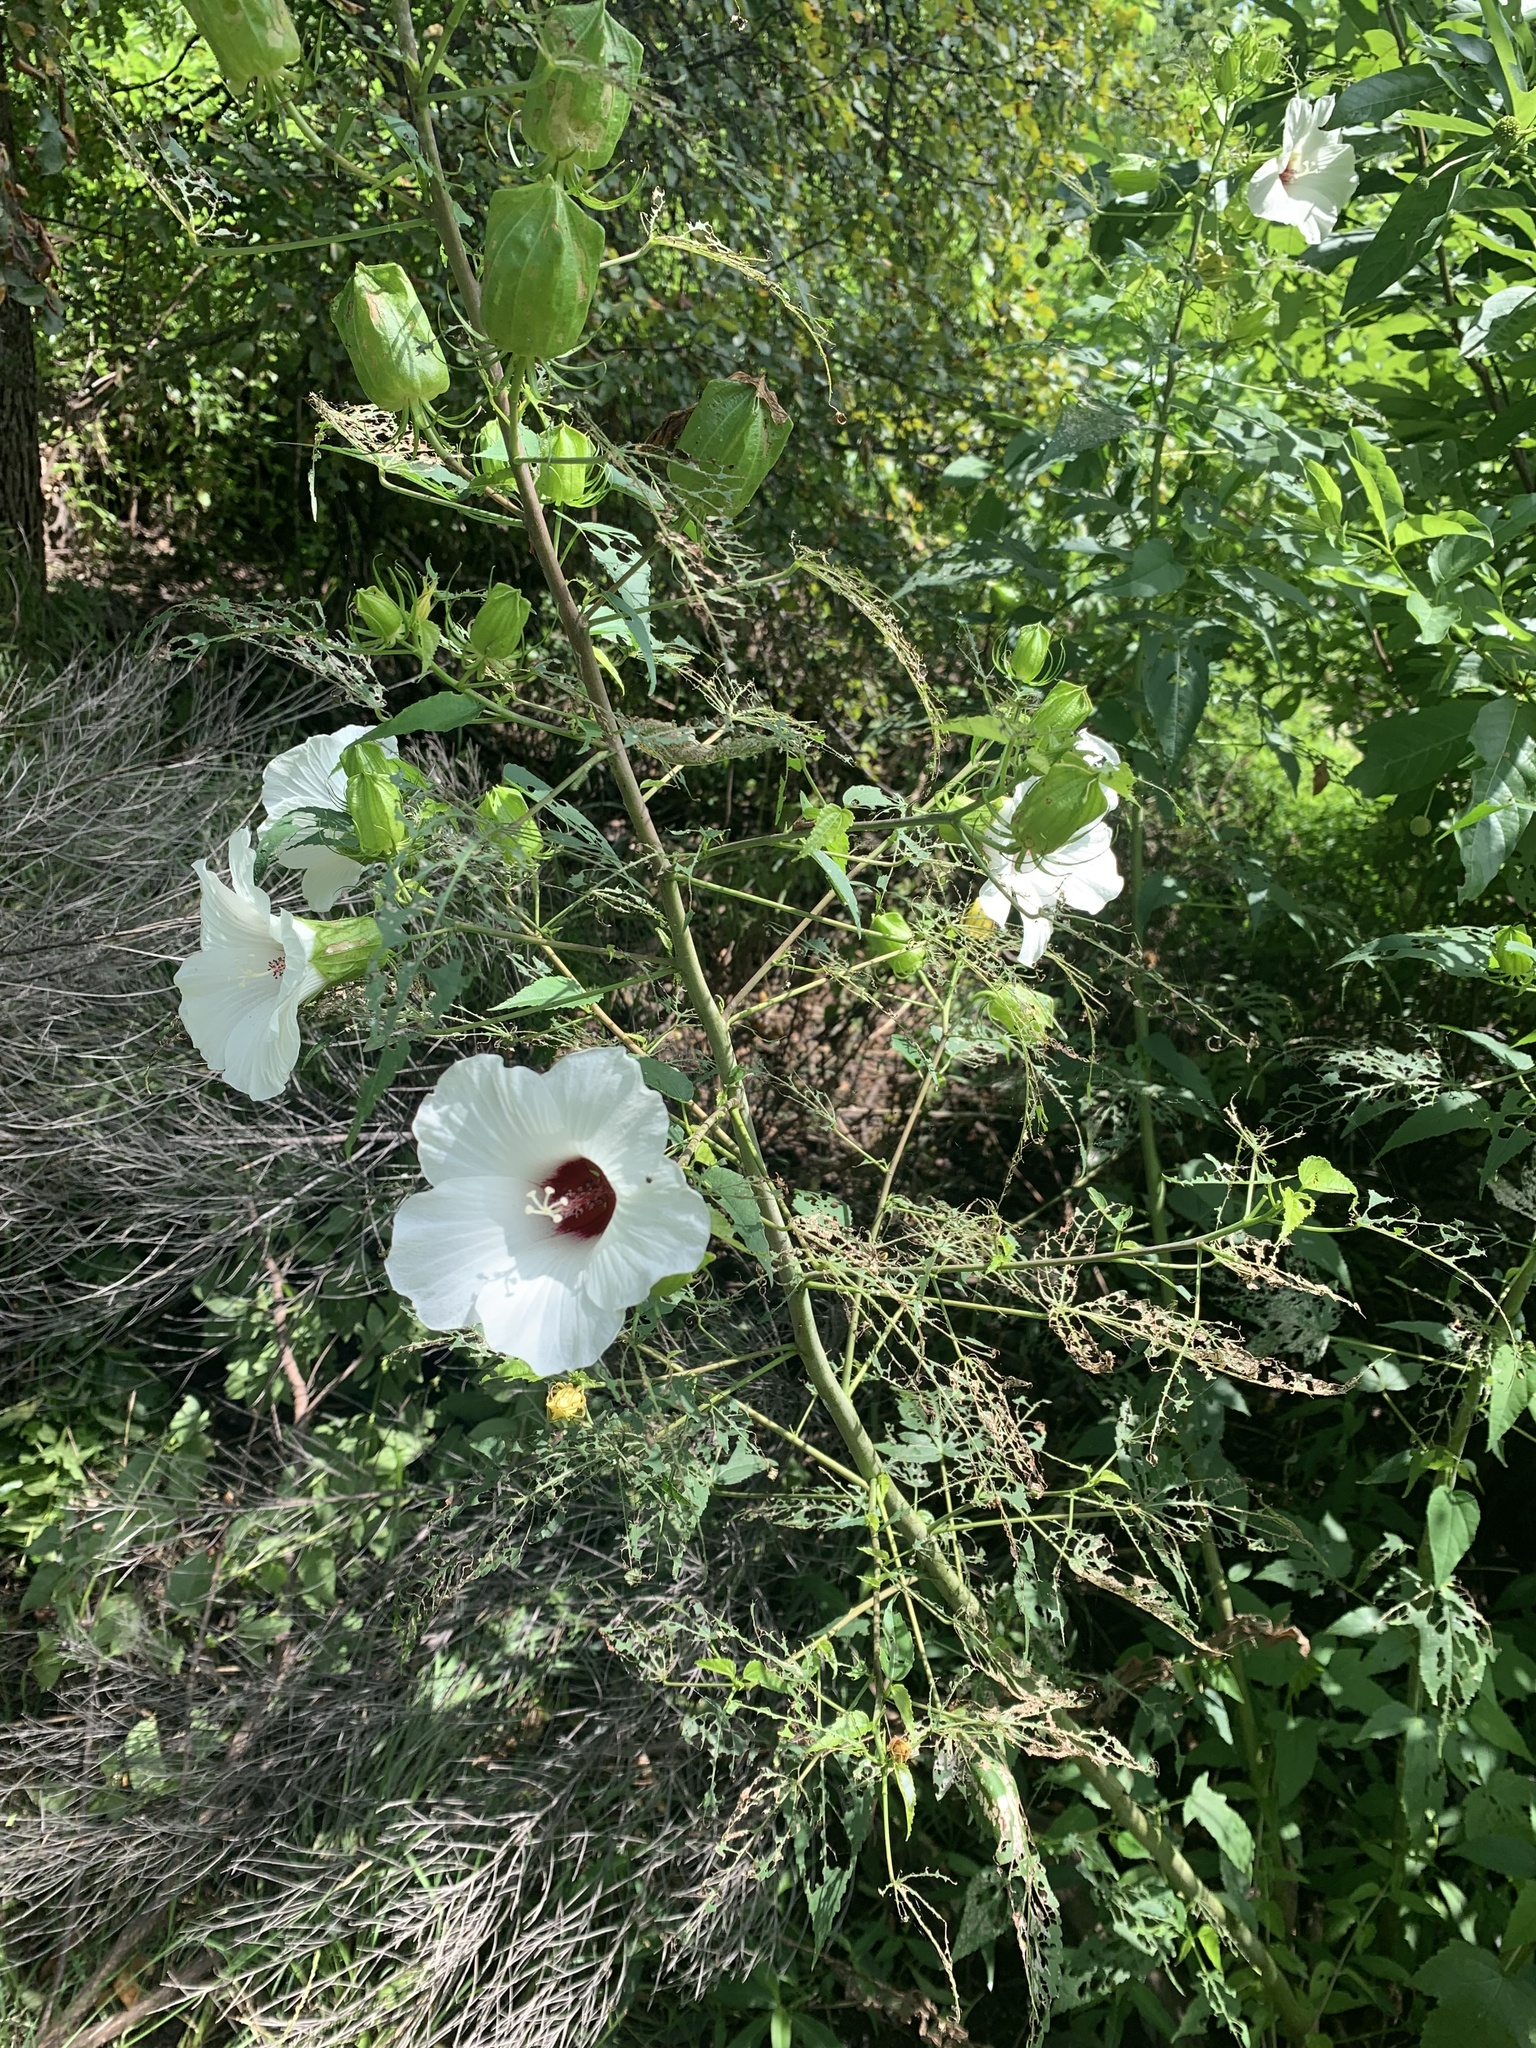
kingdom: Plantae
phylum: Tracheophyta
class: Magnoliopsida
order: Malvales
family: Malvaceae
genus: Hibiscus
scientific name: Hibiscus laevis
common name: Scarlet rose-mallow
